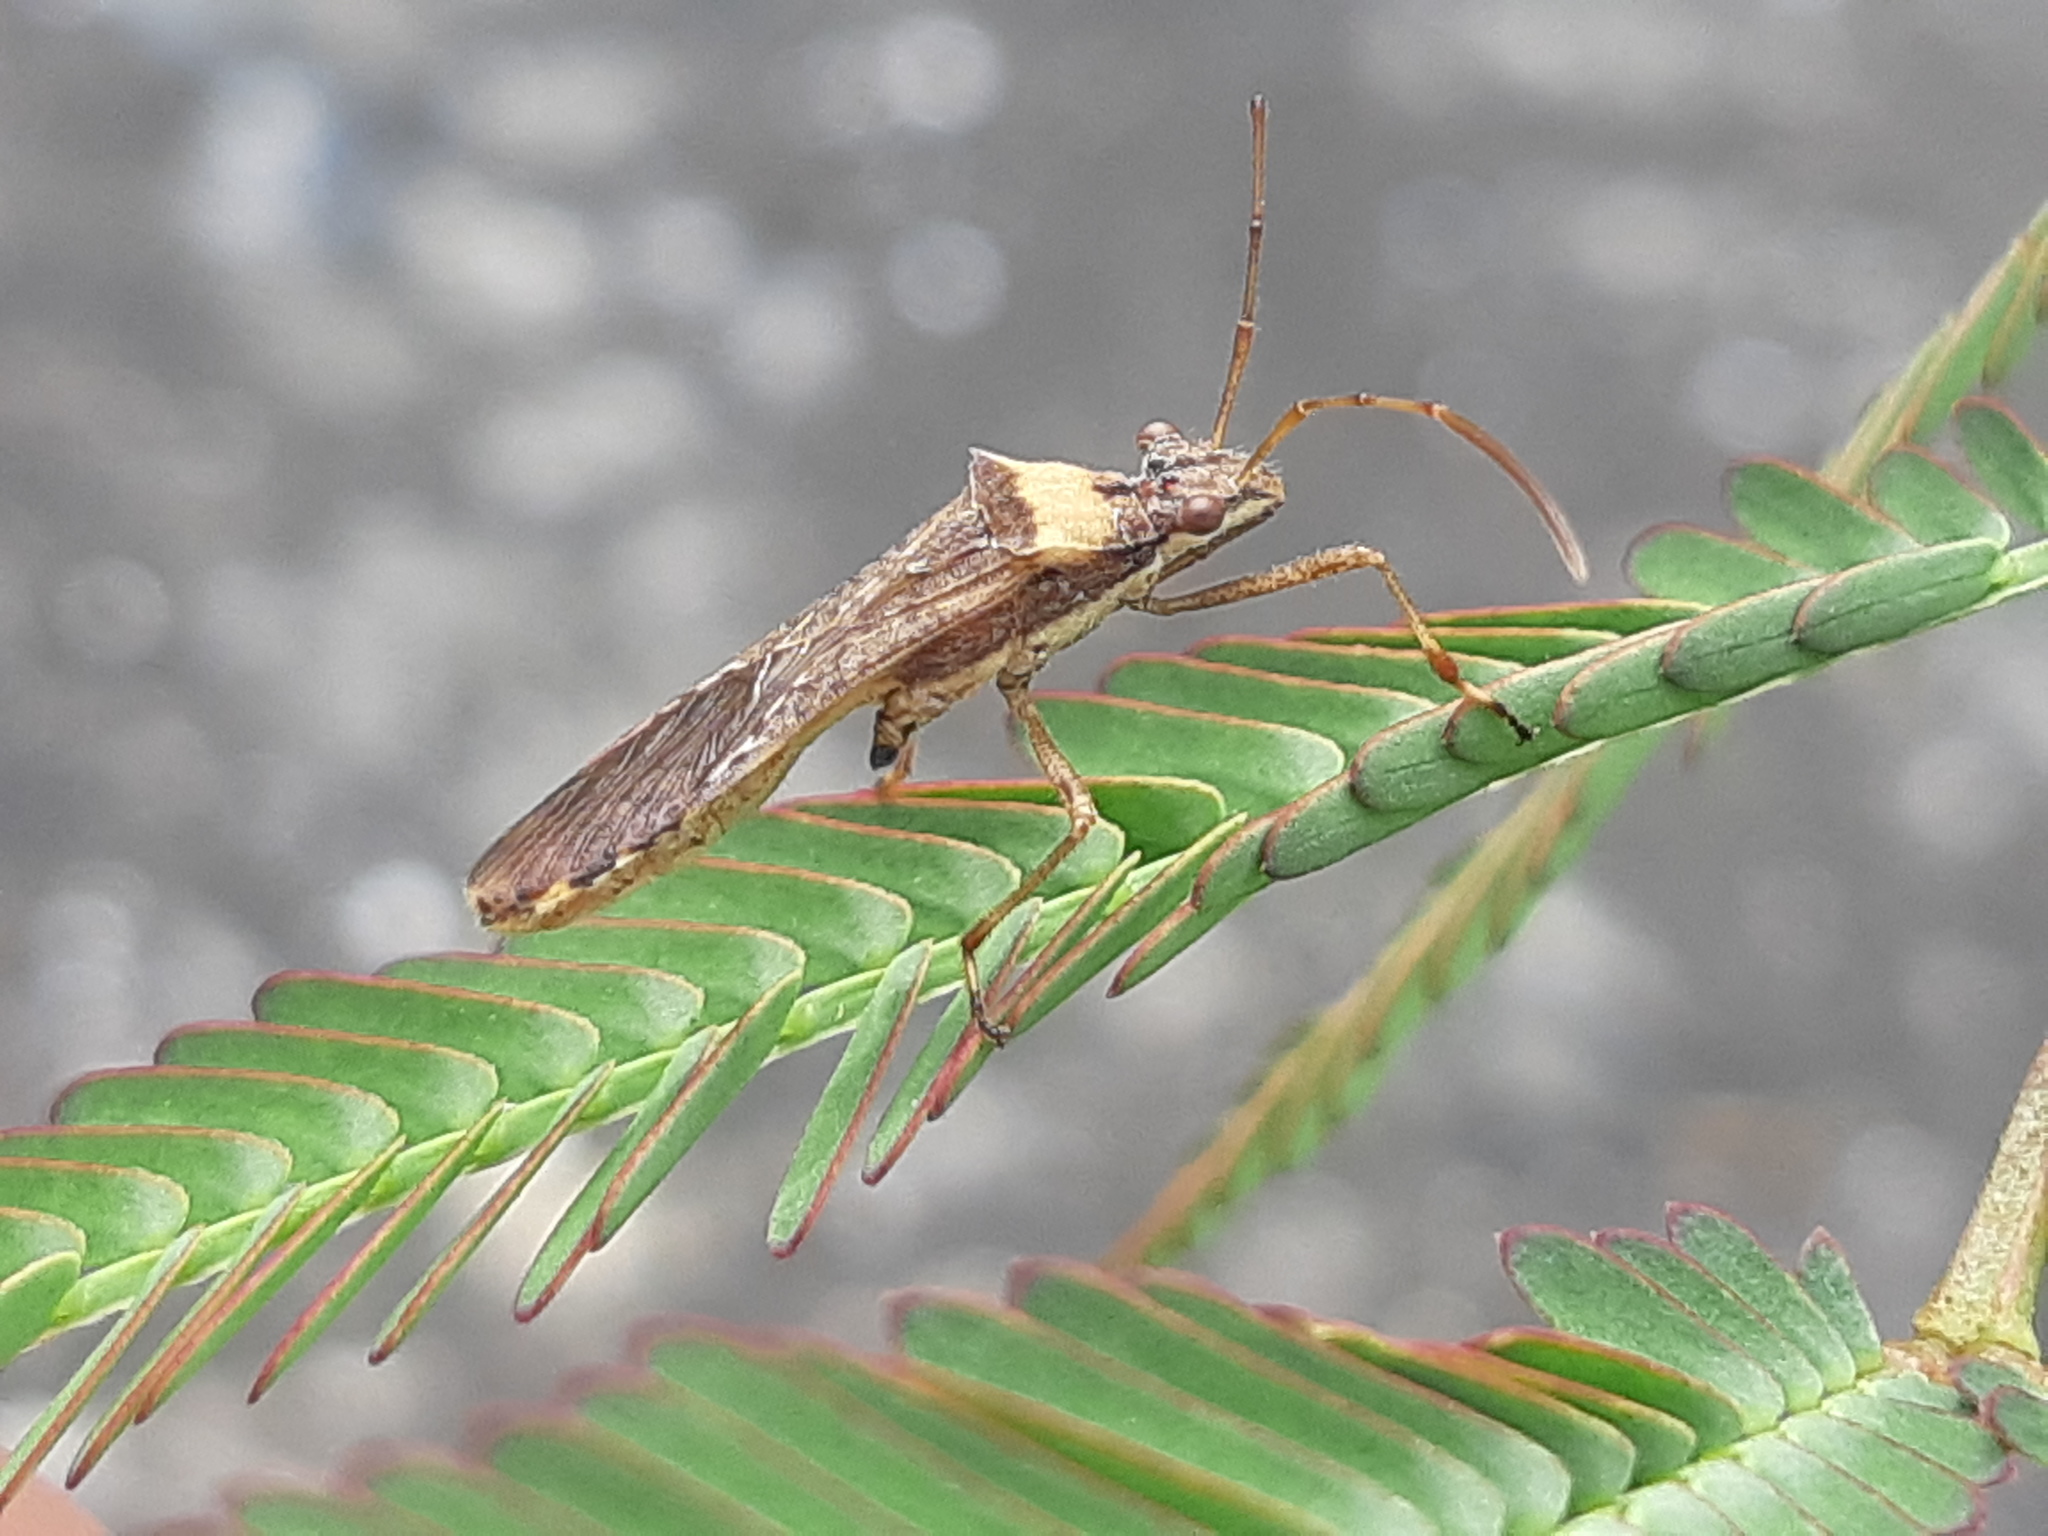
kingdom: Animalia
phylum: Arthropoda
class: Insecta
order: Hemiptera
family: Alydidae
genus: Neomegalotomus
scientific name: Neomegalotomus parvus
